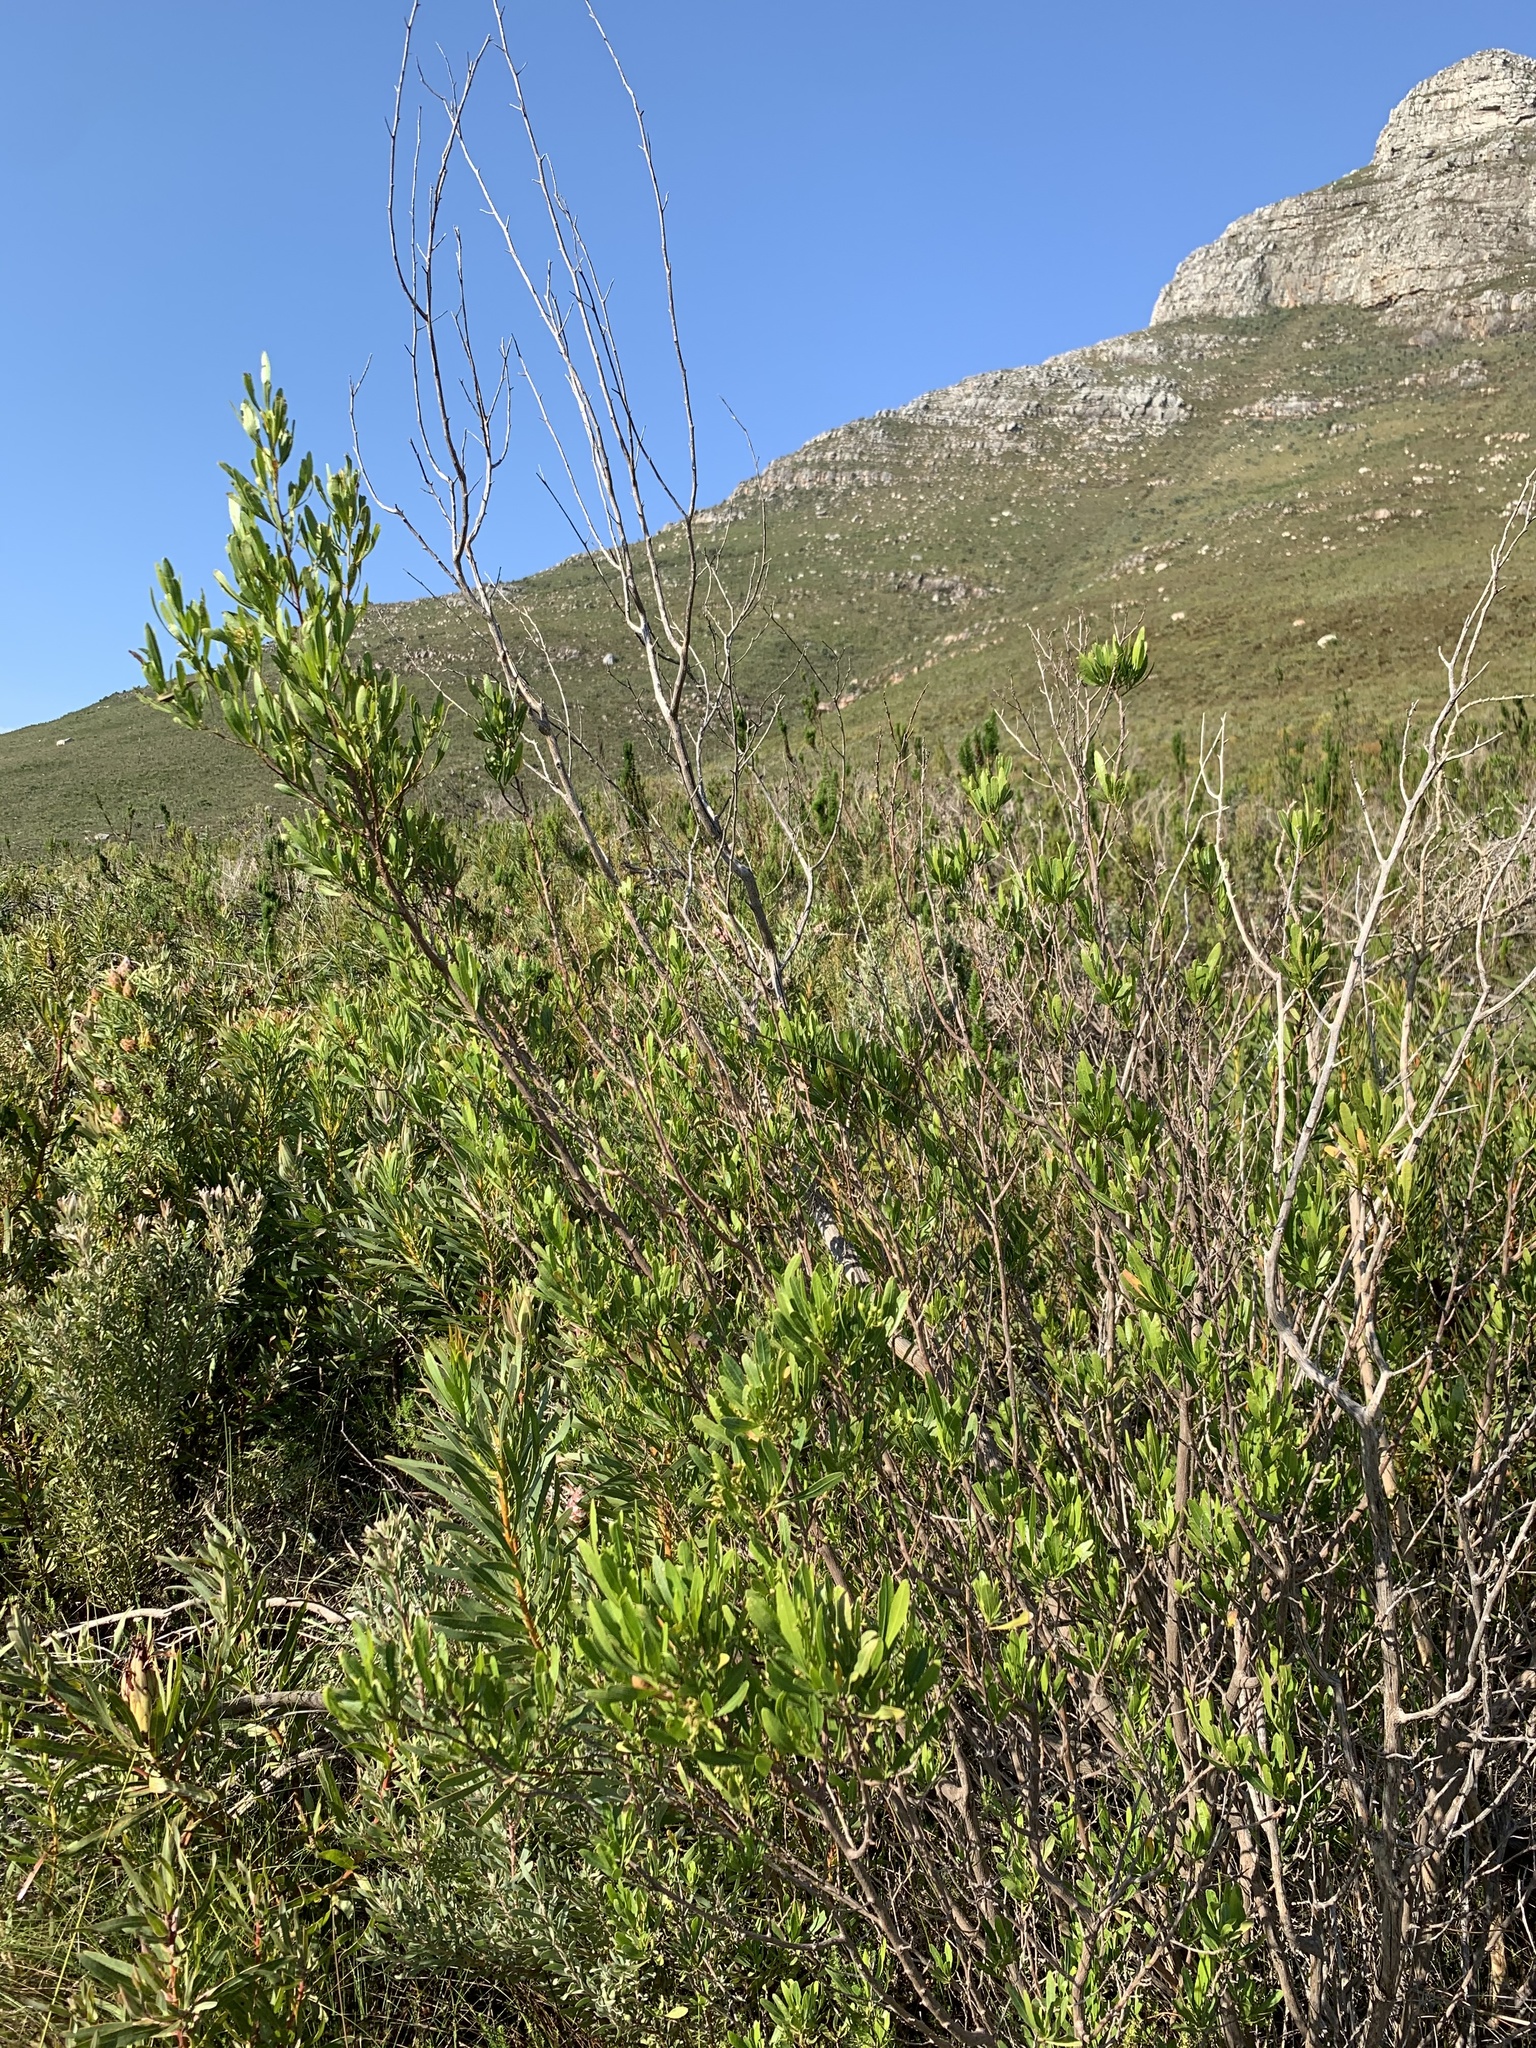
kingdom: Plantae
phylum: Tracheophyta
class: Magnoliopsida
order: Sapindales
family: Sapindaceae
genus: Dodonaea
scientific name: Dodonaea viscosa
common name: Hopbush
